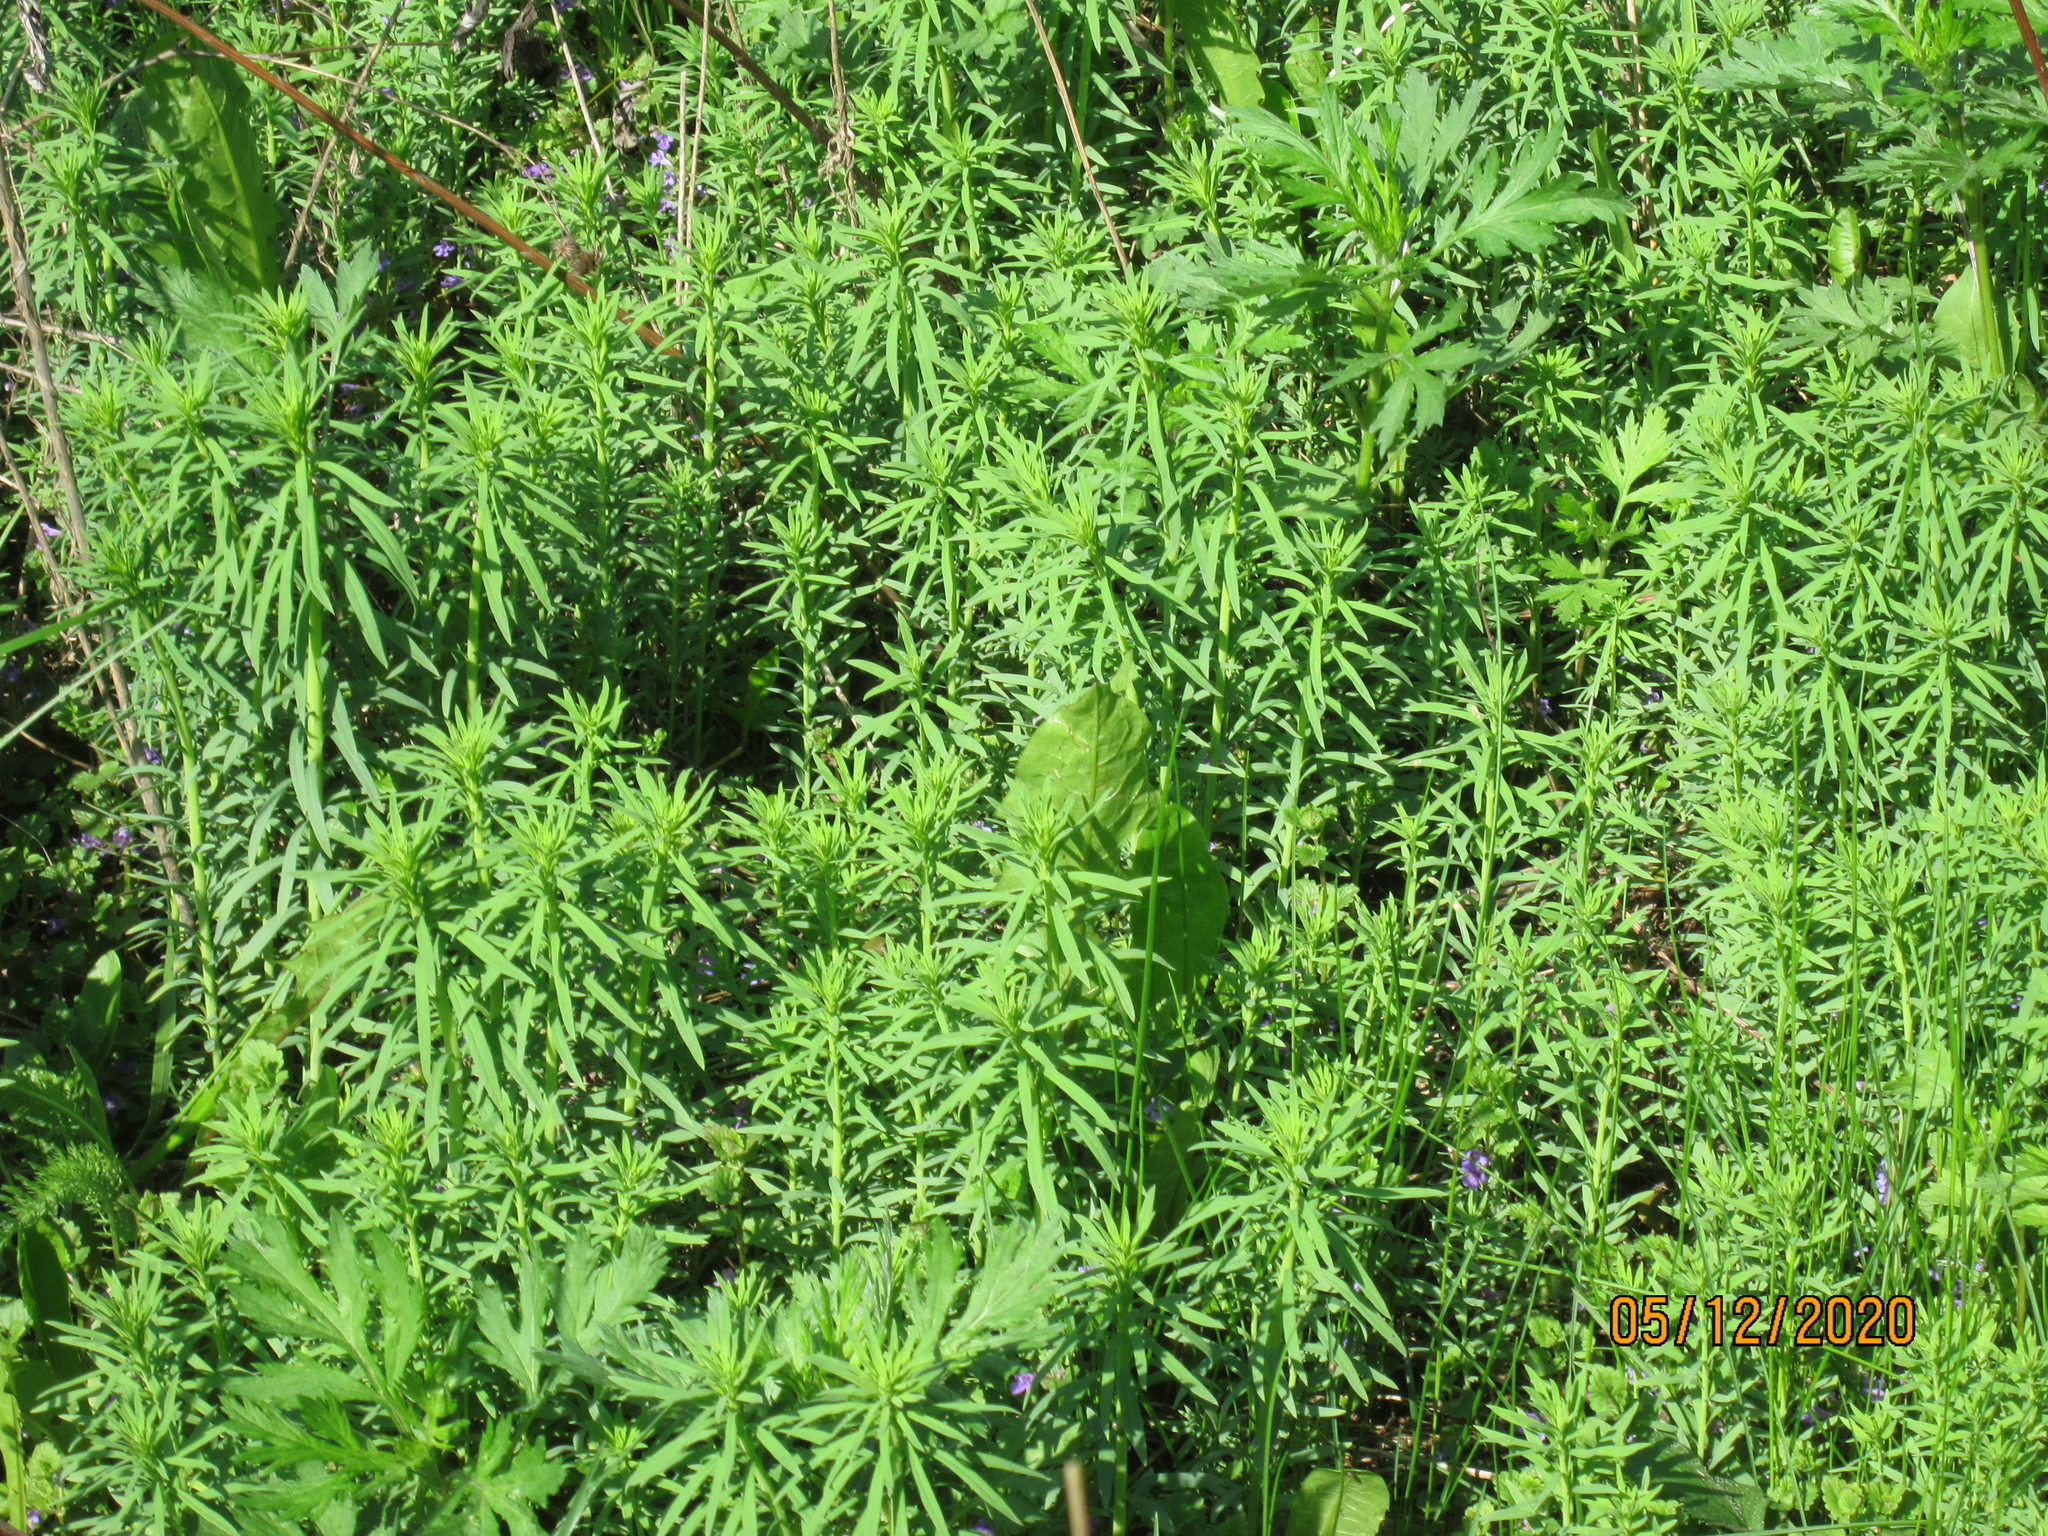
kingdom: Plantae
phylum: Tracheophyta
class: Magnoliopsida
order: Lamiales
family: Plantaginaceae
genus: Linaria
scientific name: Linaria vulgaris
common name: Butter and eggs
